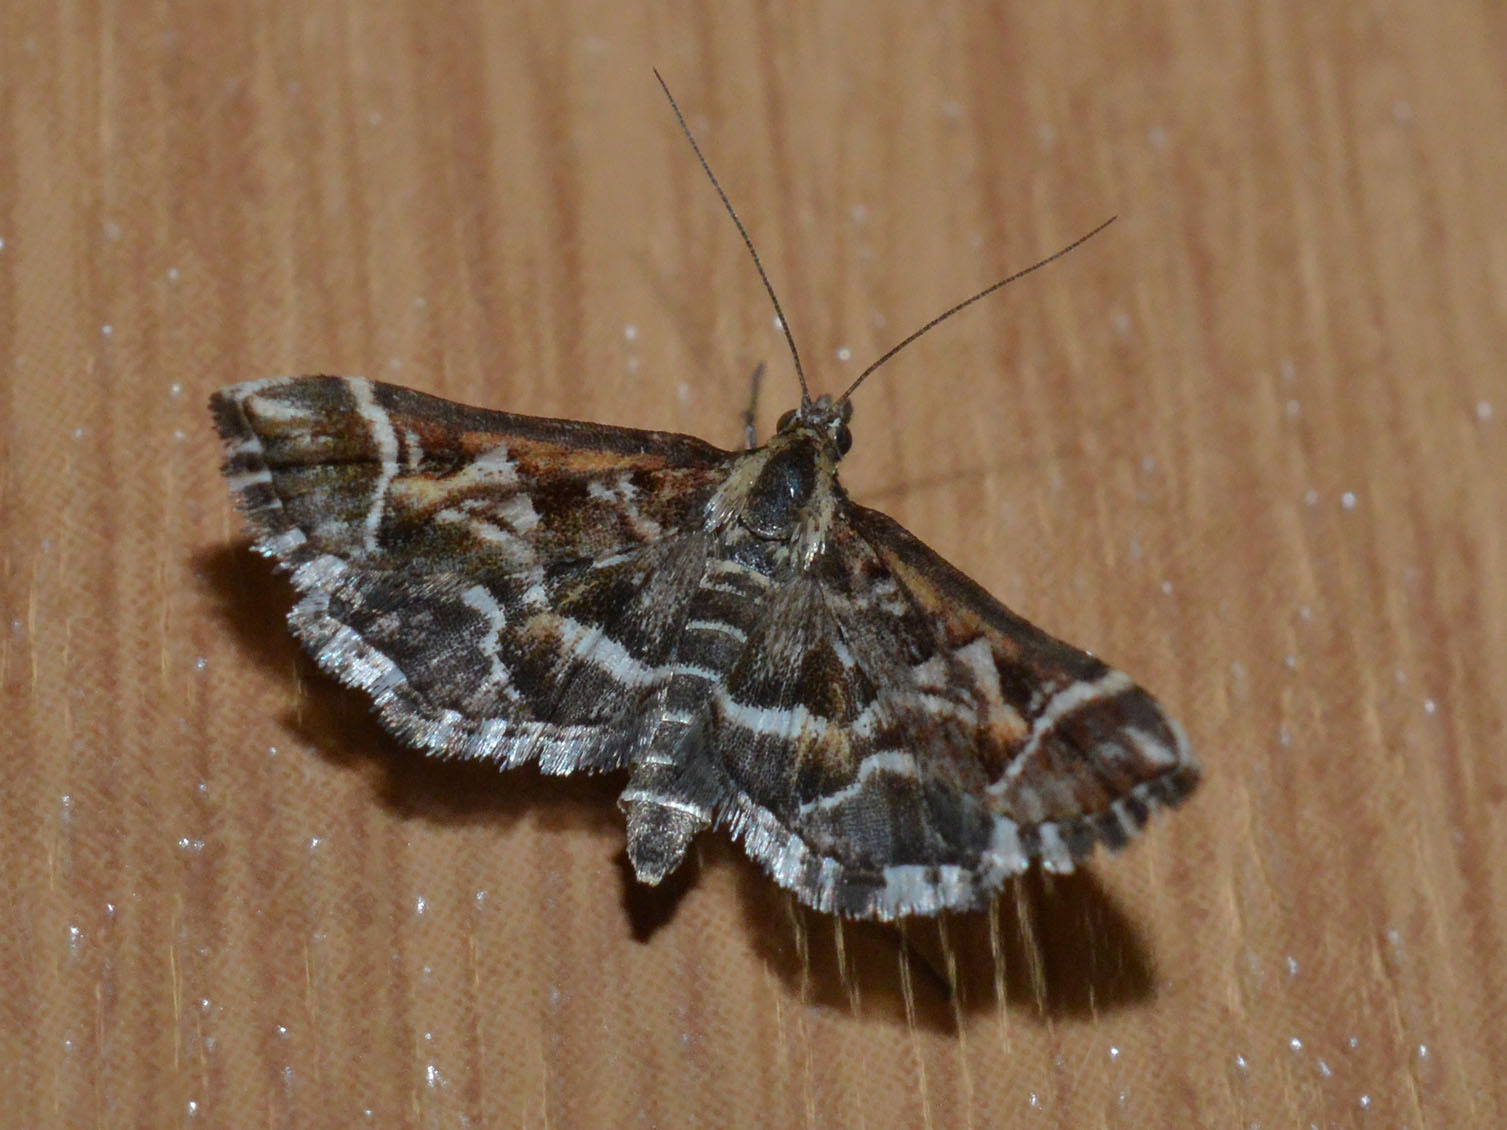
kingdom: Animalia
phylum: Arthropoda
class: Insecta
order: Lepidoptera
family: Crambidae
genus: Diasemia
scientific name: Diasemia reticularis
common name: Lettered china-mark
